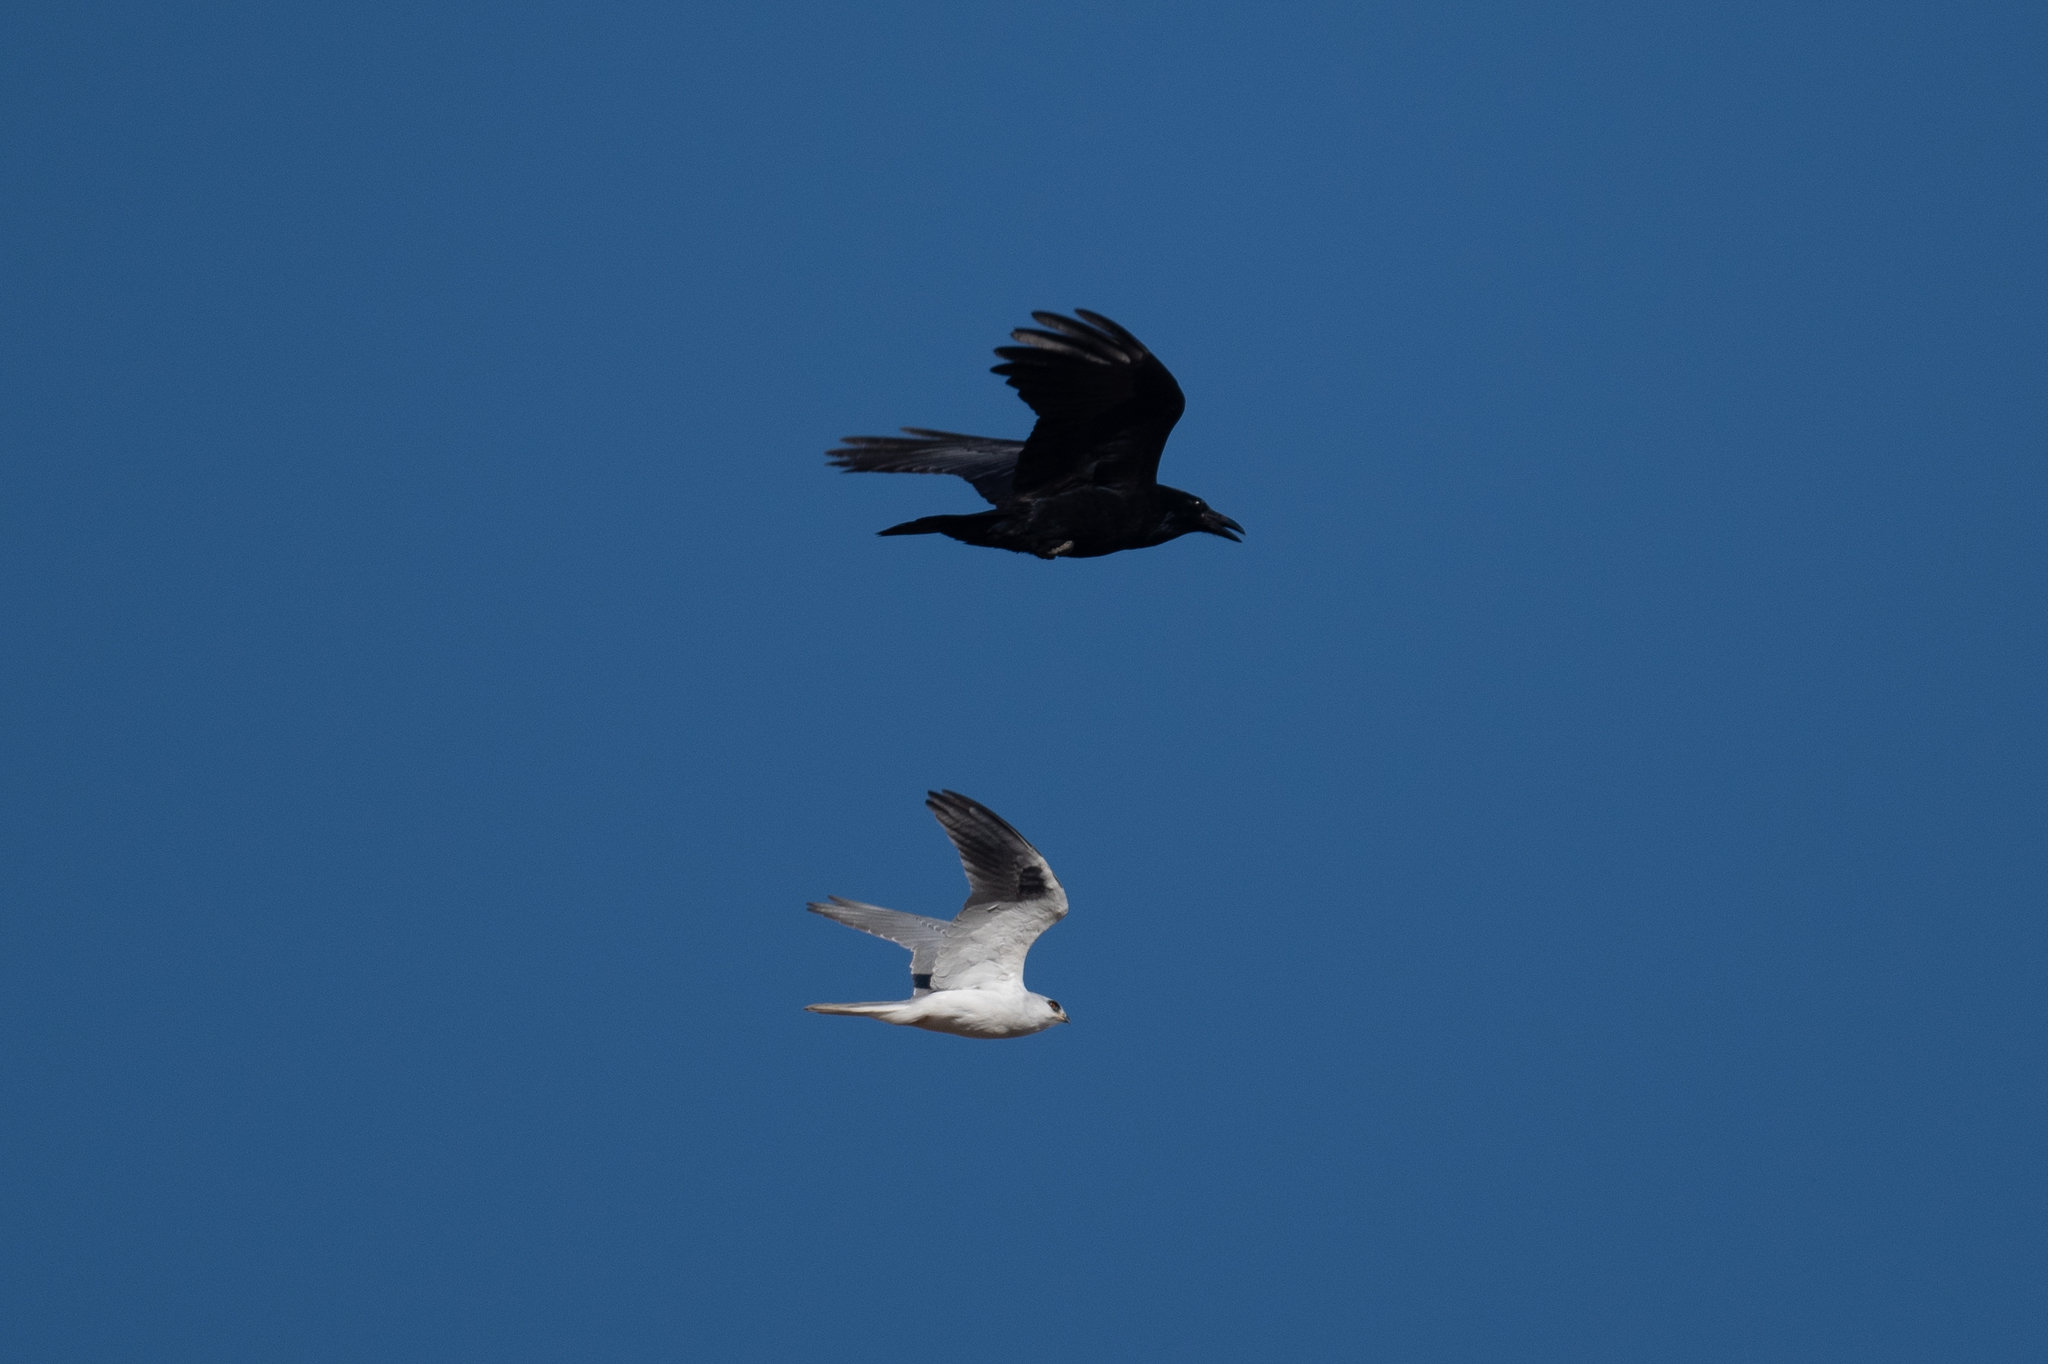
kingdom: Animalia
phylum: Chordata
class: Aves
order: Passeriformes
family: Corvidae
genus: Corvus
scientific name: Corvus corax
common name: Common raven
